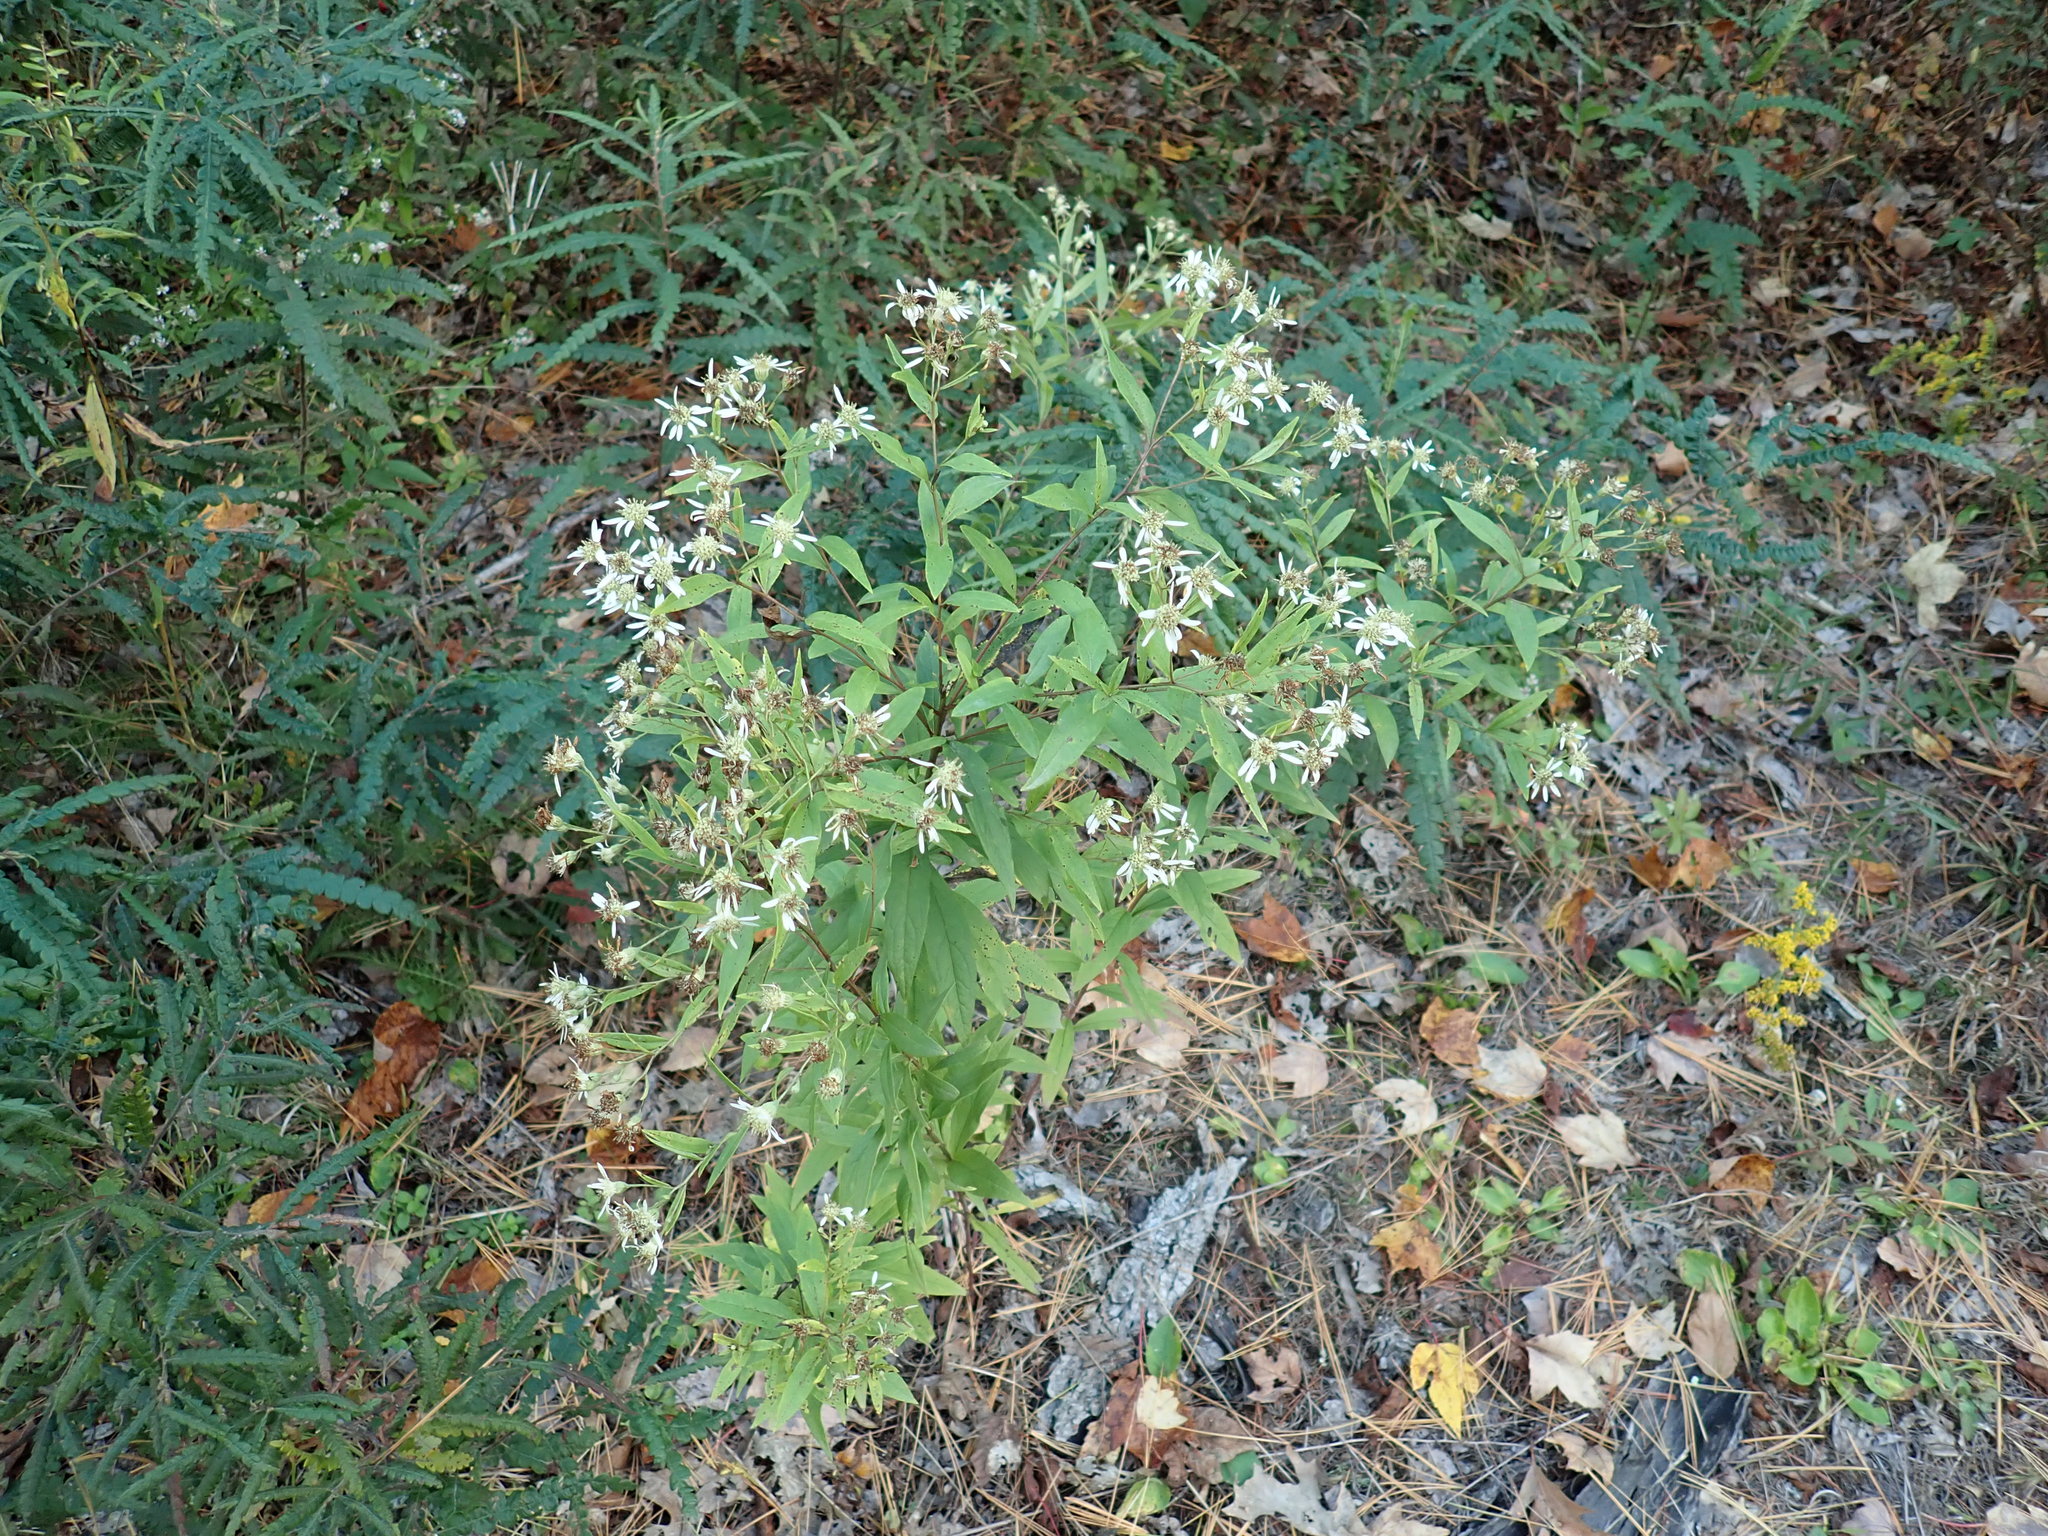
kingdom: Plantae
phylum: Tracheophyta
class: Magnoliopsida
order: Asterales
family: Asteraceae
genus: Doellingeria
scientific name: Doellingeria umbellata
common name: Flat-top white aster
